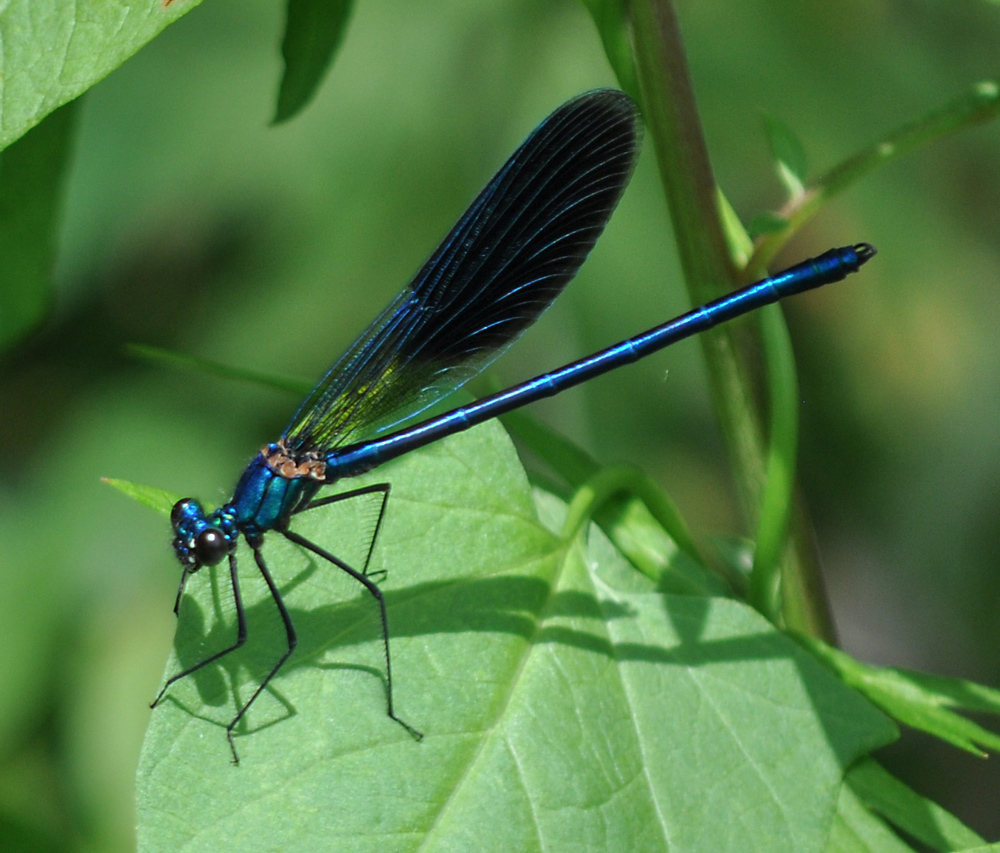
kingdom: Animalia
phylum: Arthropoda
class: Insecta
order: Odonata
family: Calopterygidae
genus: Calopteryx
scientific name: Calopteryx splendens
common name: Banded demoiselle
